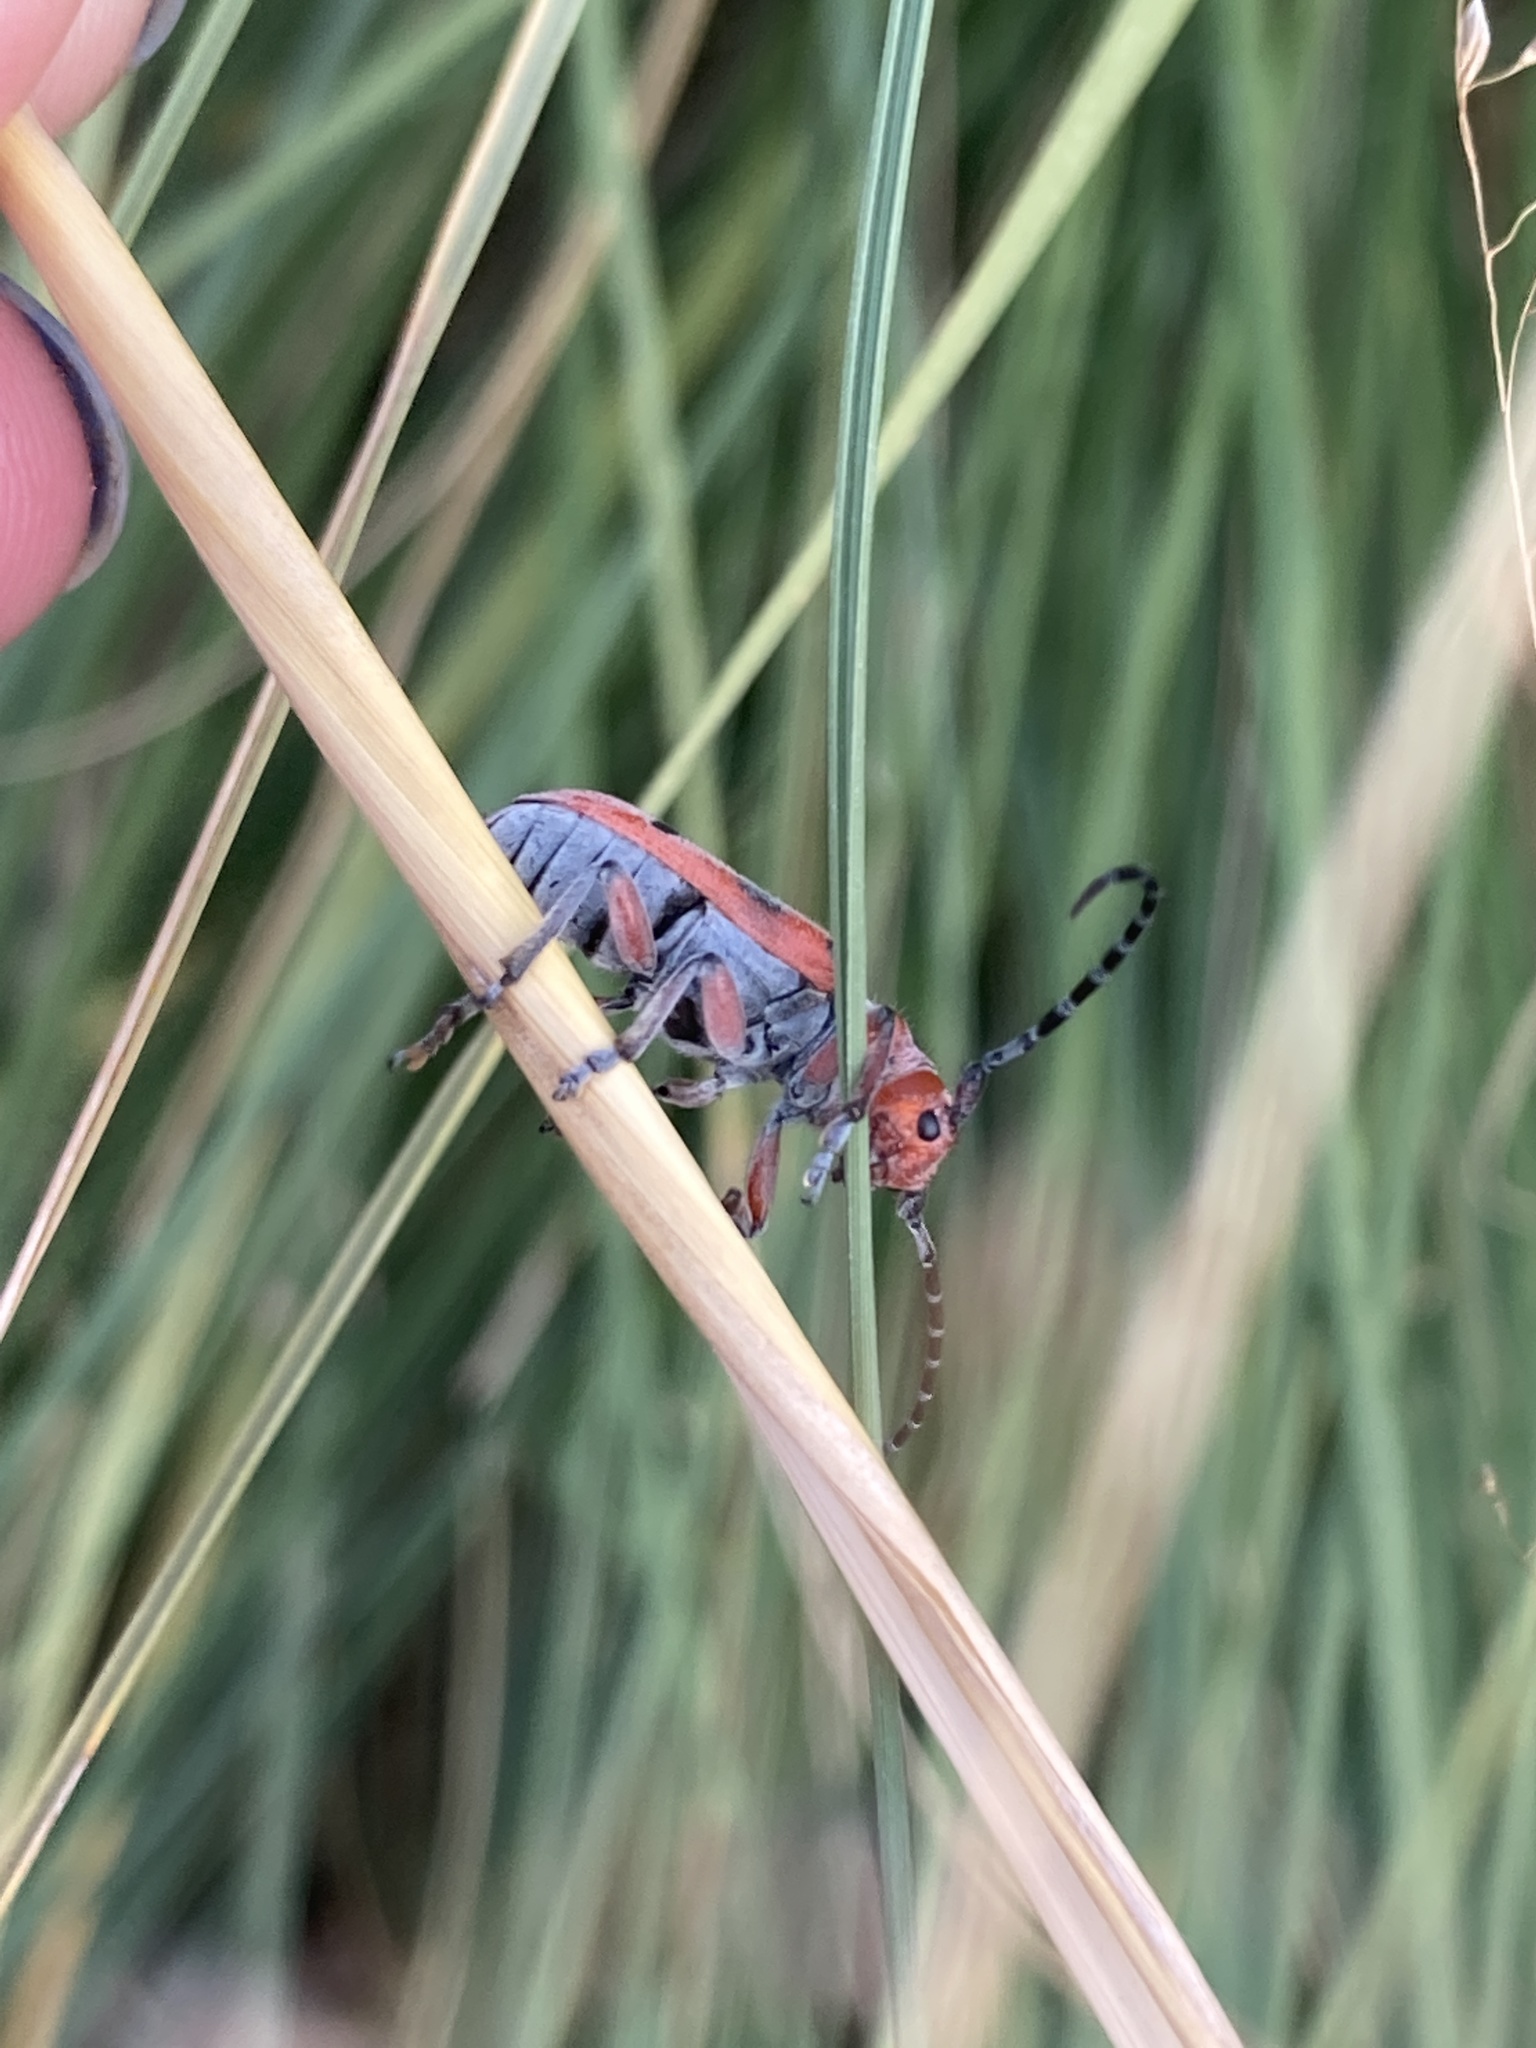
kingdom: Animalia
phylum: Arthropoda
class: Insecta
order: Coleoptera
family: Cerambycidae
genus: Tetraopes
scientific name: Tetraopes femoratus
